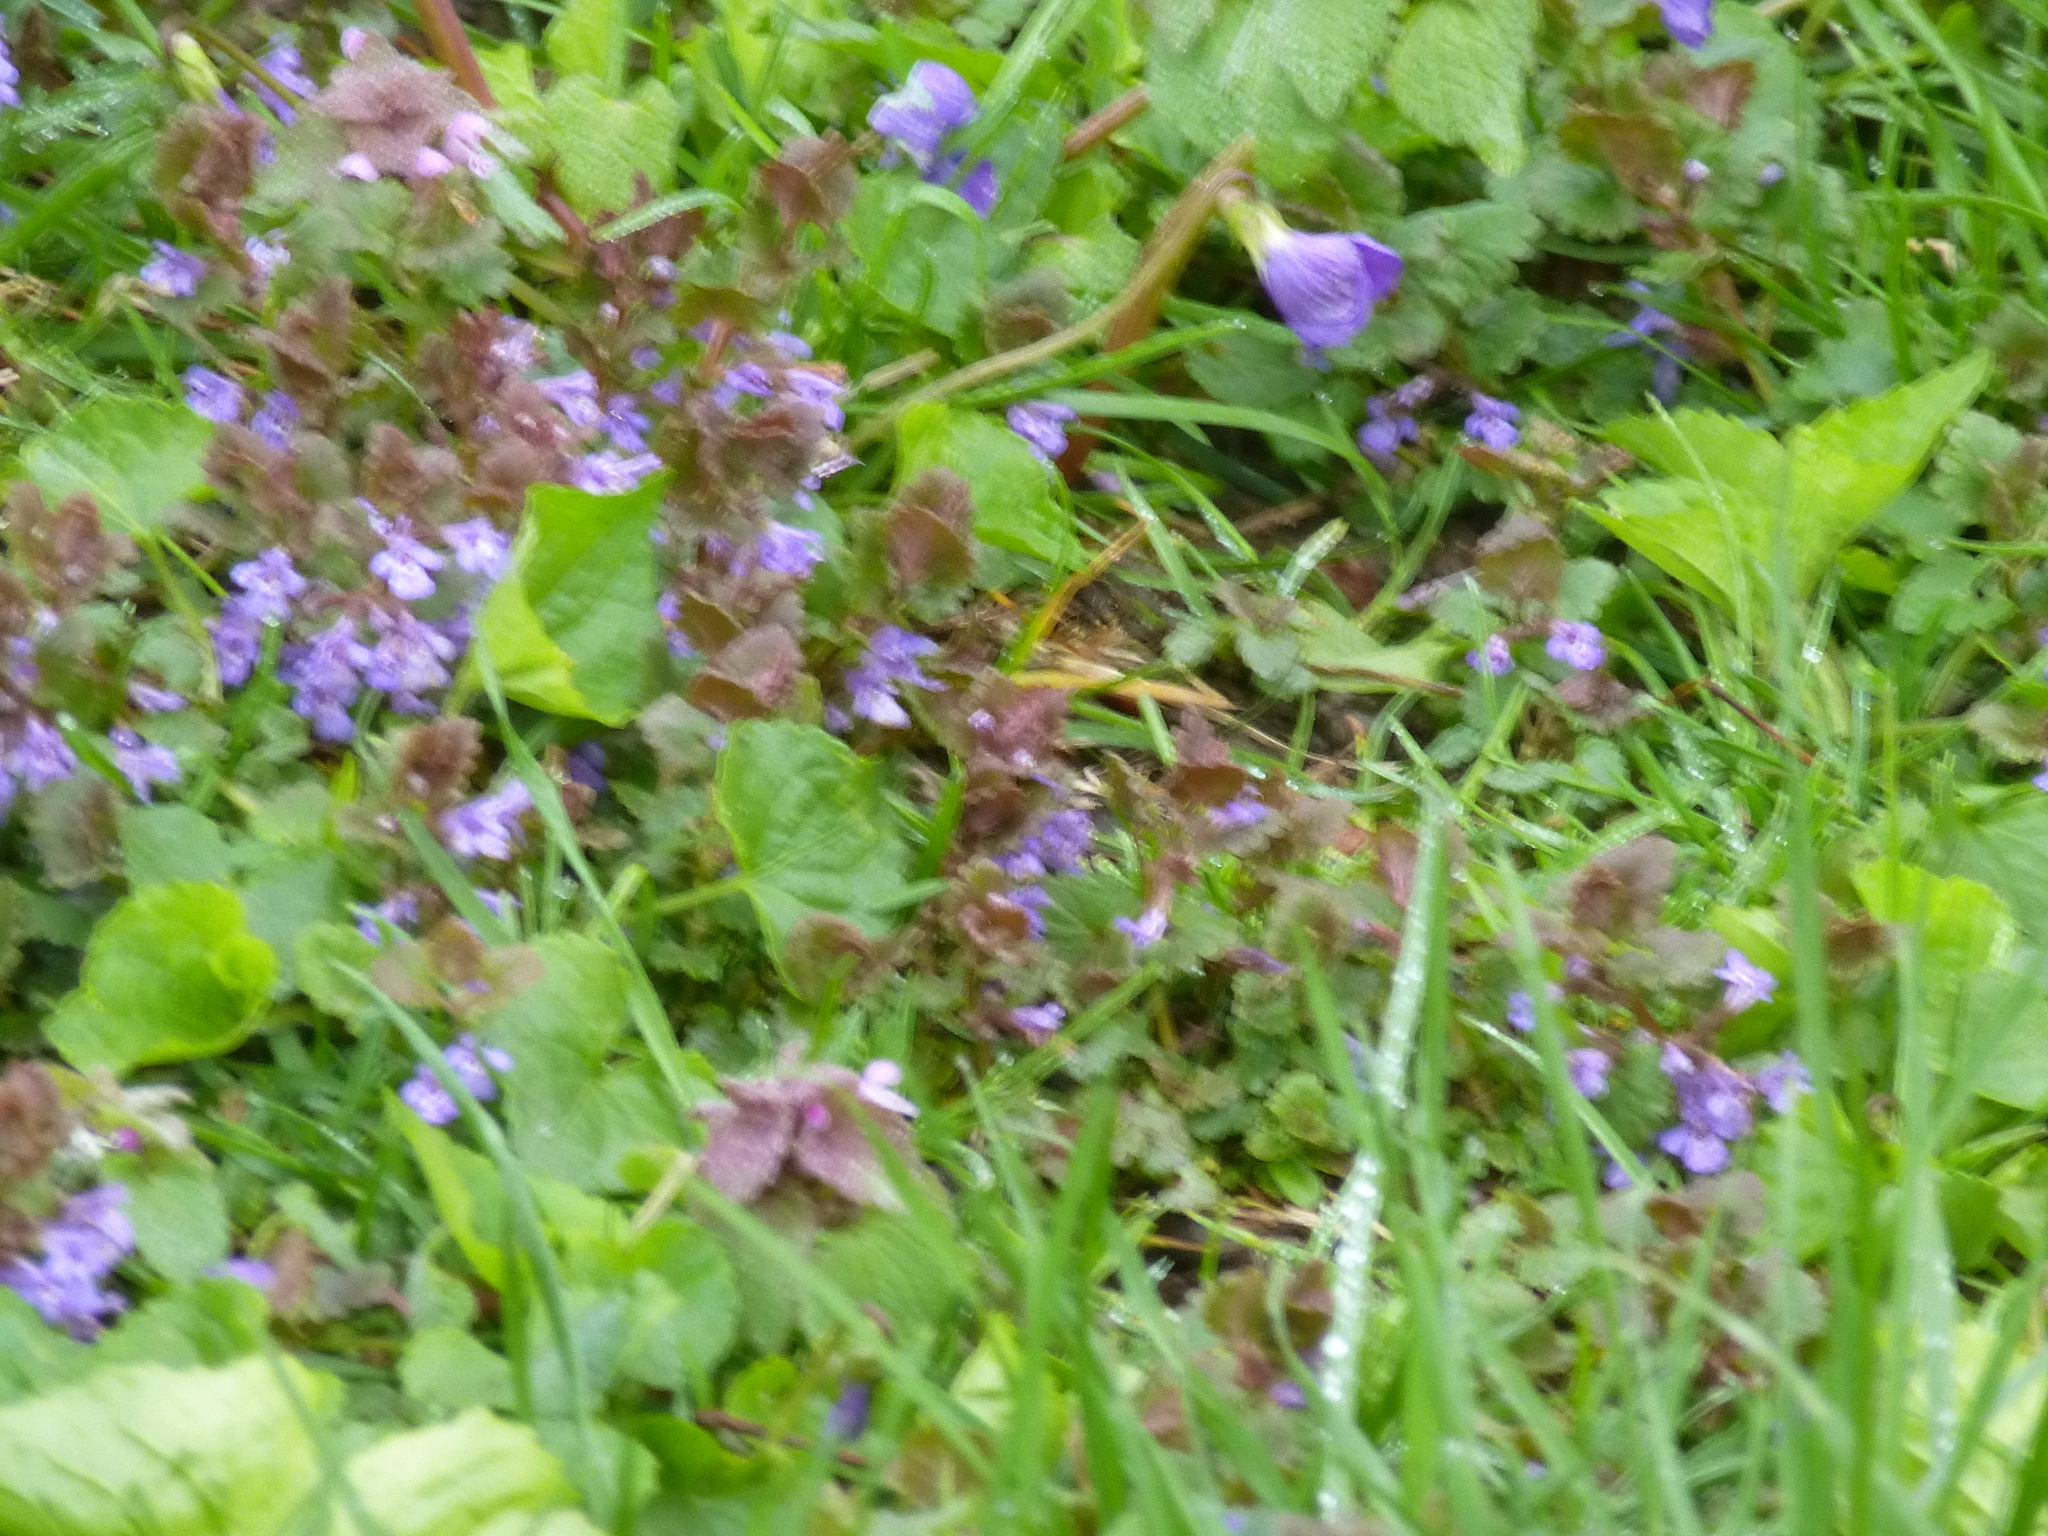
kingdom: Plantae
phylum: Tracheophyta
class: Magnoliopsida
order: Lamiales
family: Lamiaceae
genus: Glechoma
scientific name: Glechoma hederacea
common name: Ground ivy
